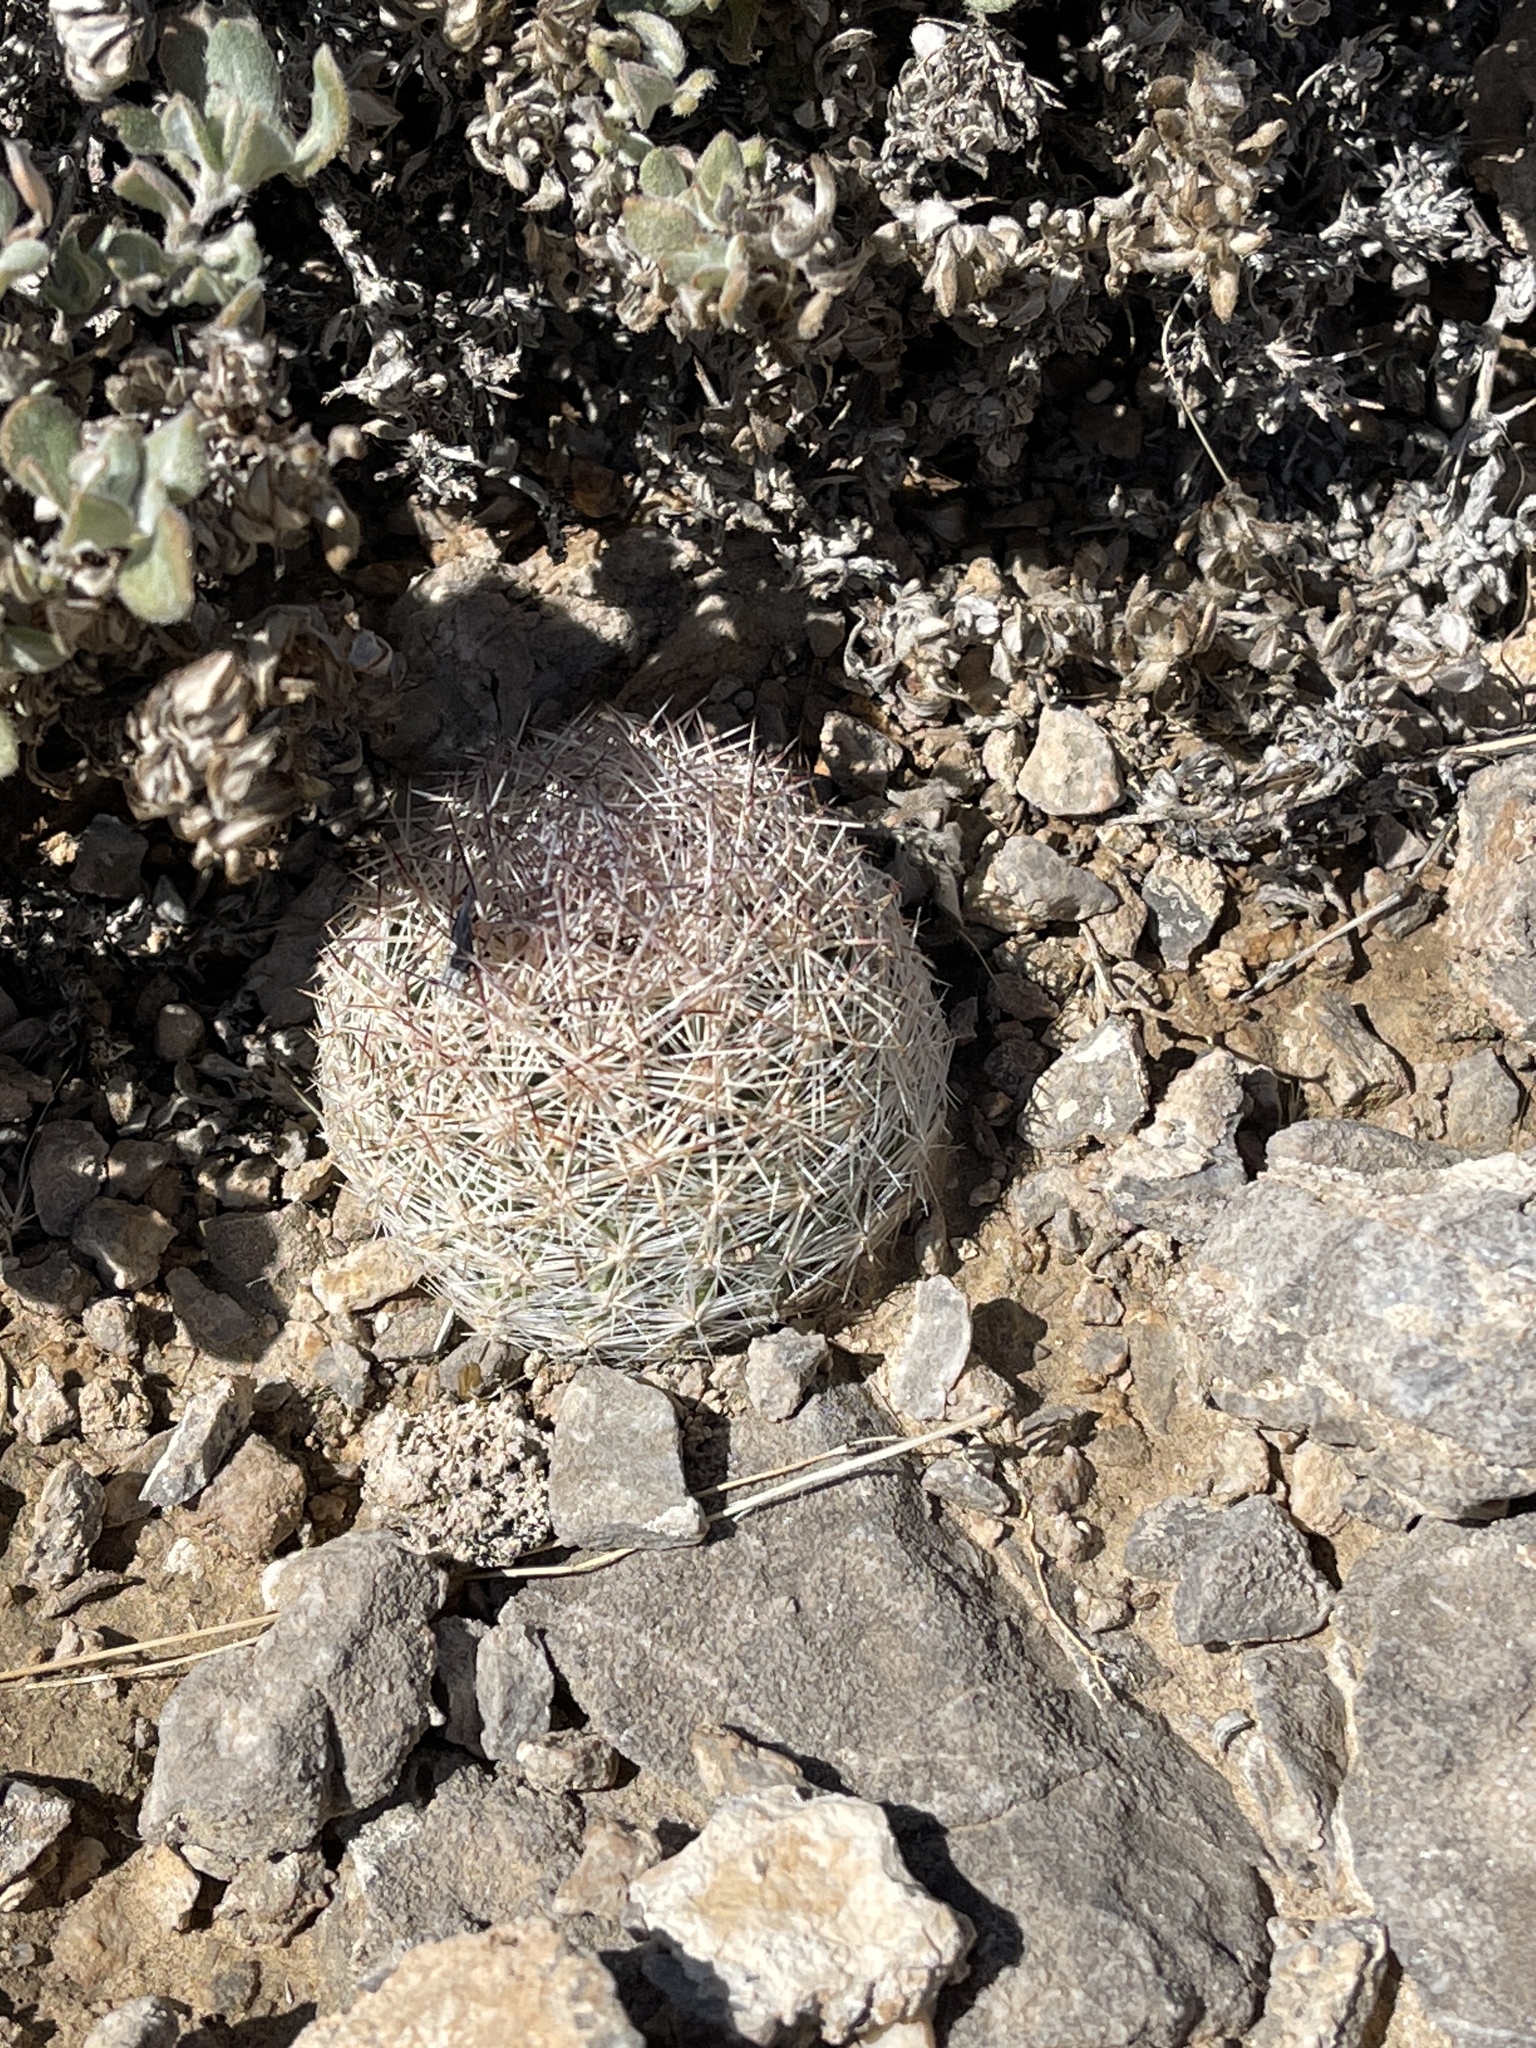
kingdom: Plantae
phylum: Tracheophyta
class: Magnoliopsida
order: Caryophyllales
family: Cactaceae
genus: Pelecyphora
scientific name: Pelecyphora dasyacantha
